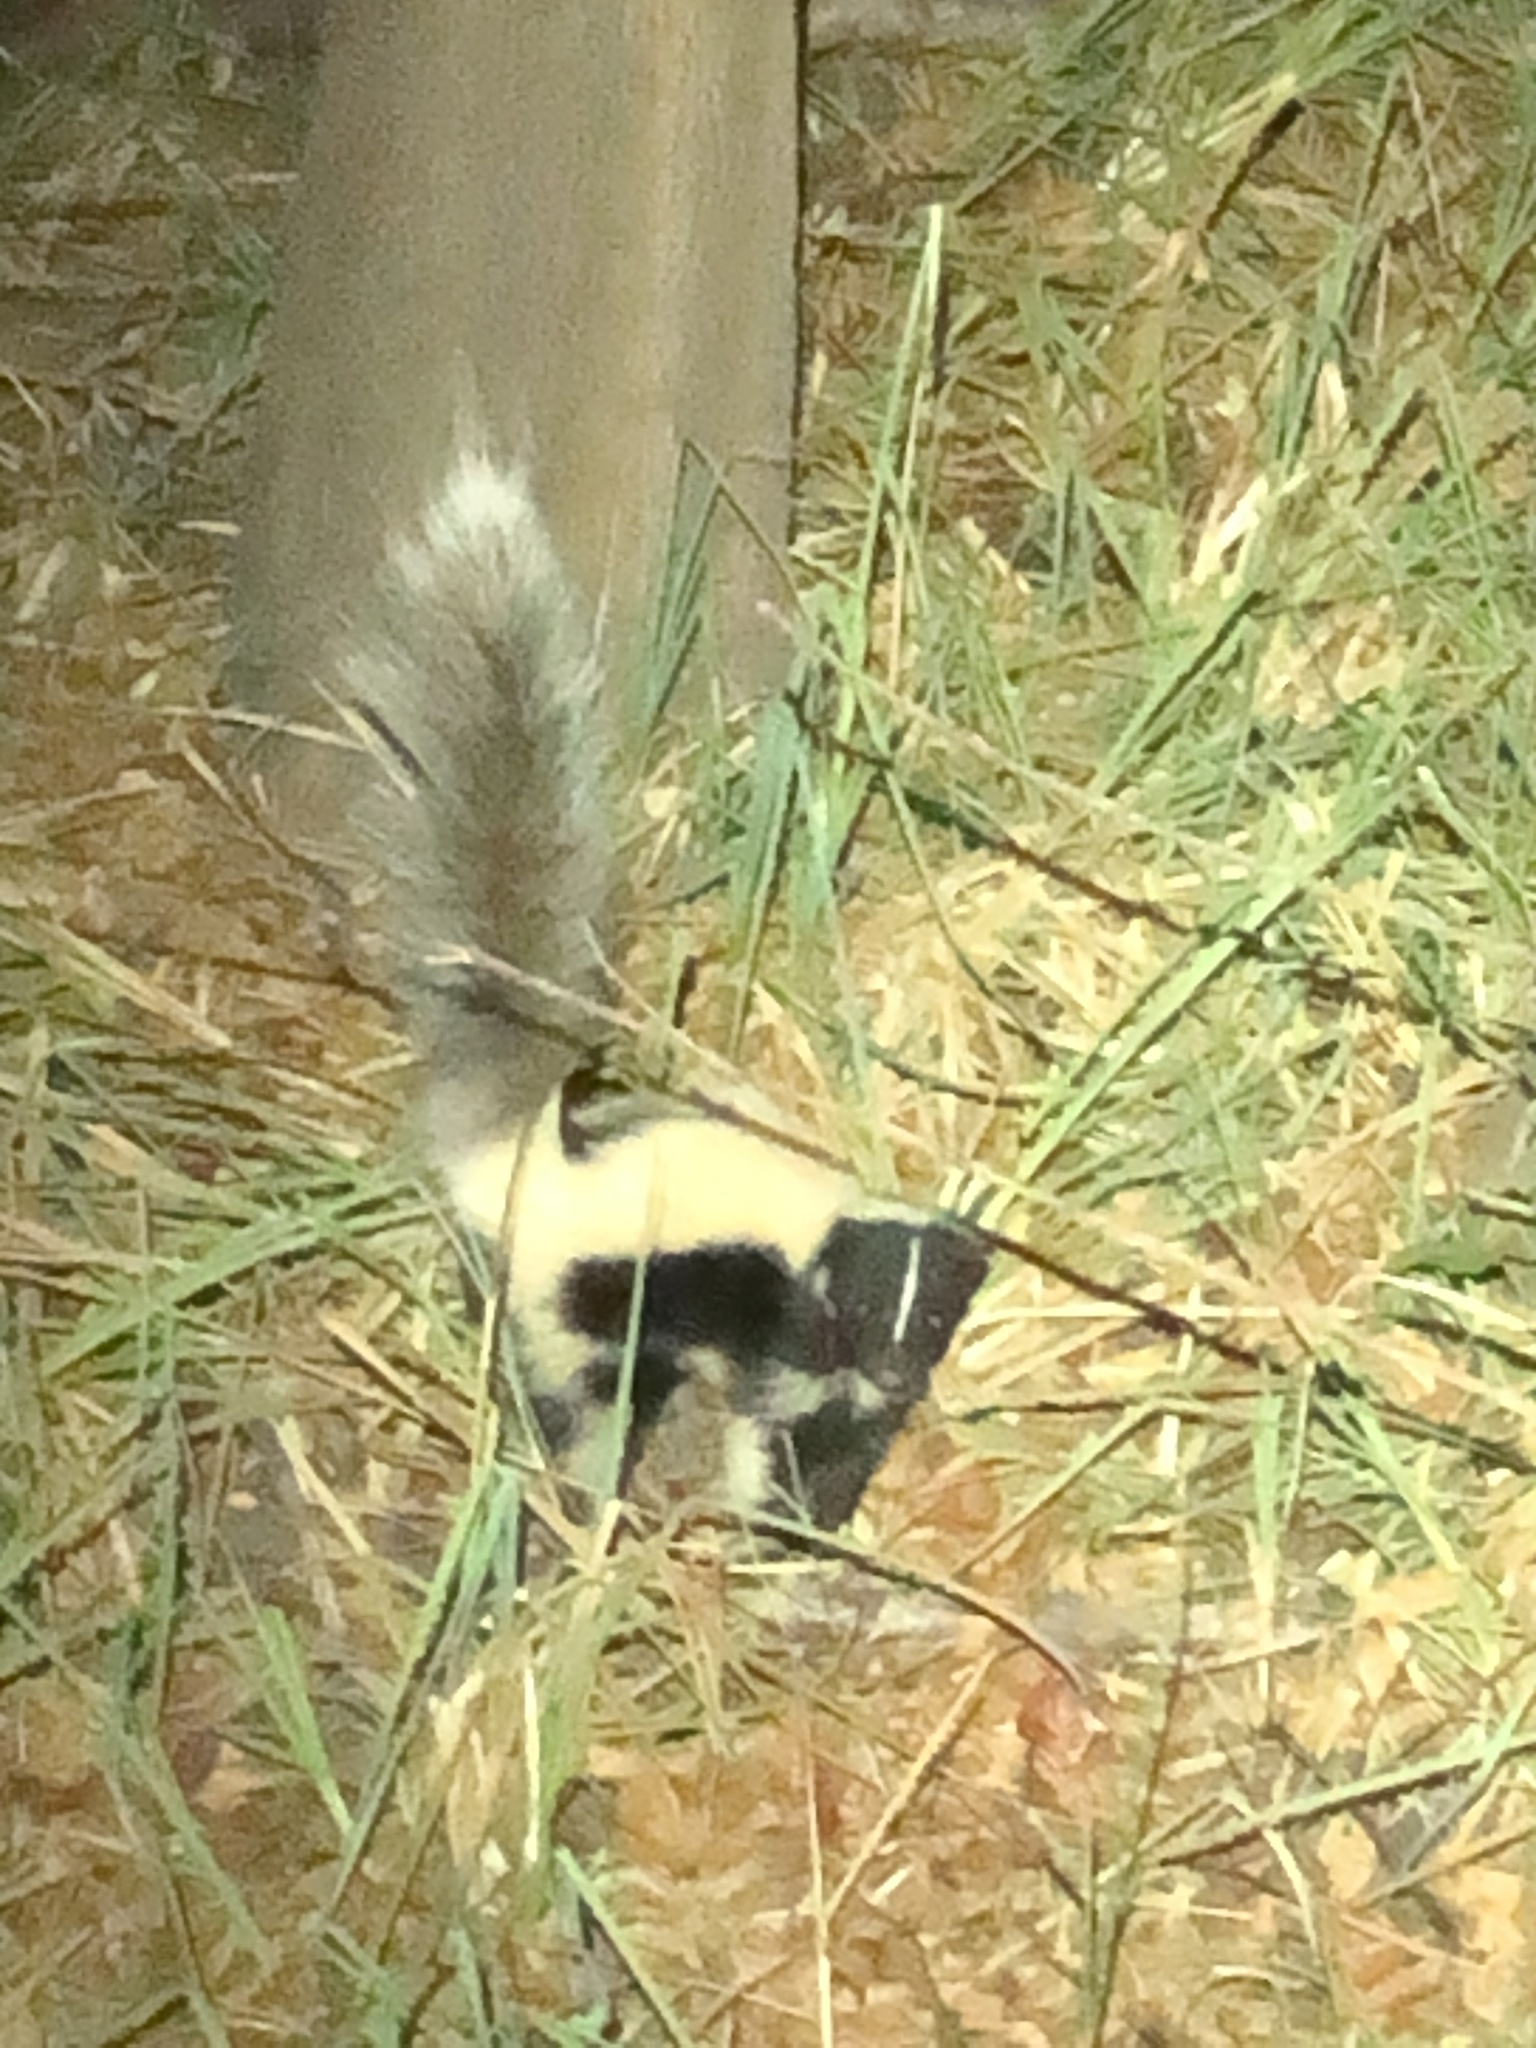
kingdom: Animalia
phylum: Chordata
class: Mammalia
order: Carnivora
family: Mephitidae
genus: Mephitis
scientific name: Mephitis mephitis
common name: Striped skunk
